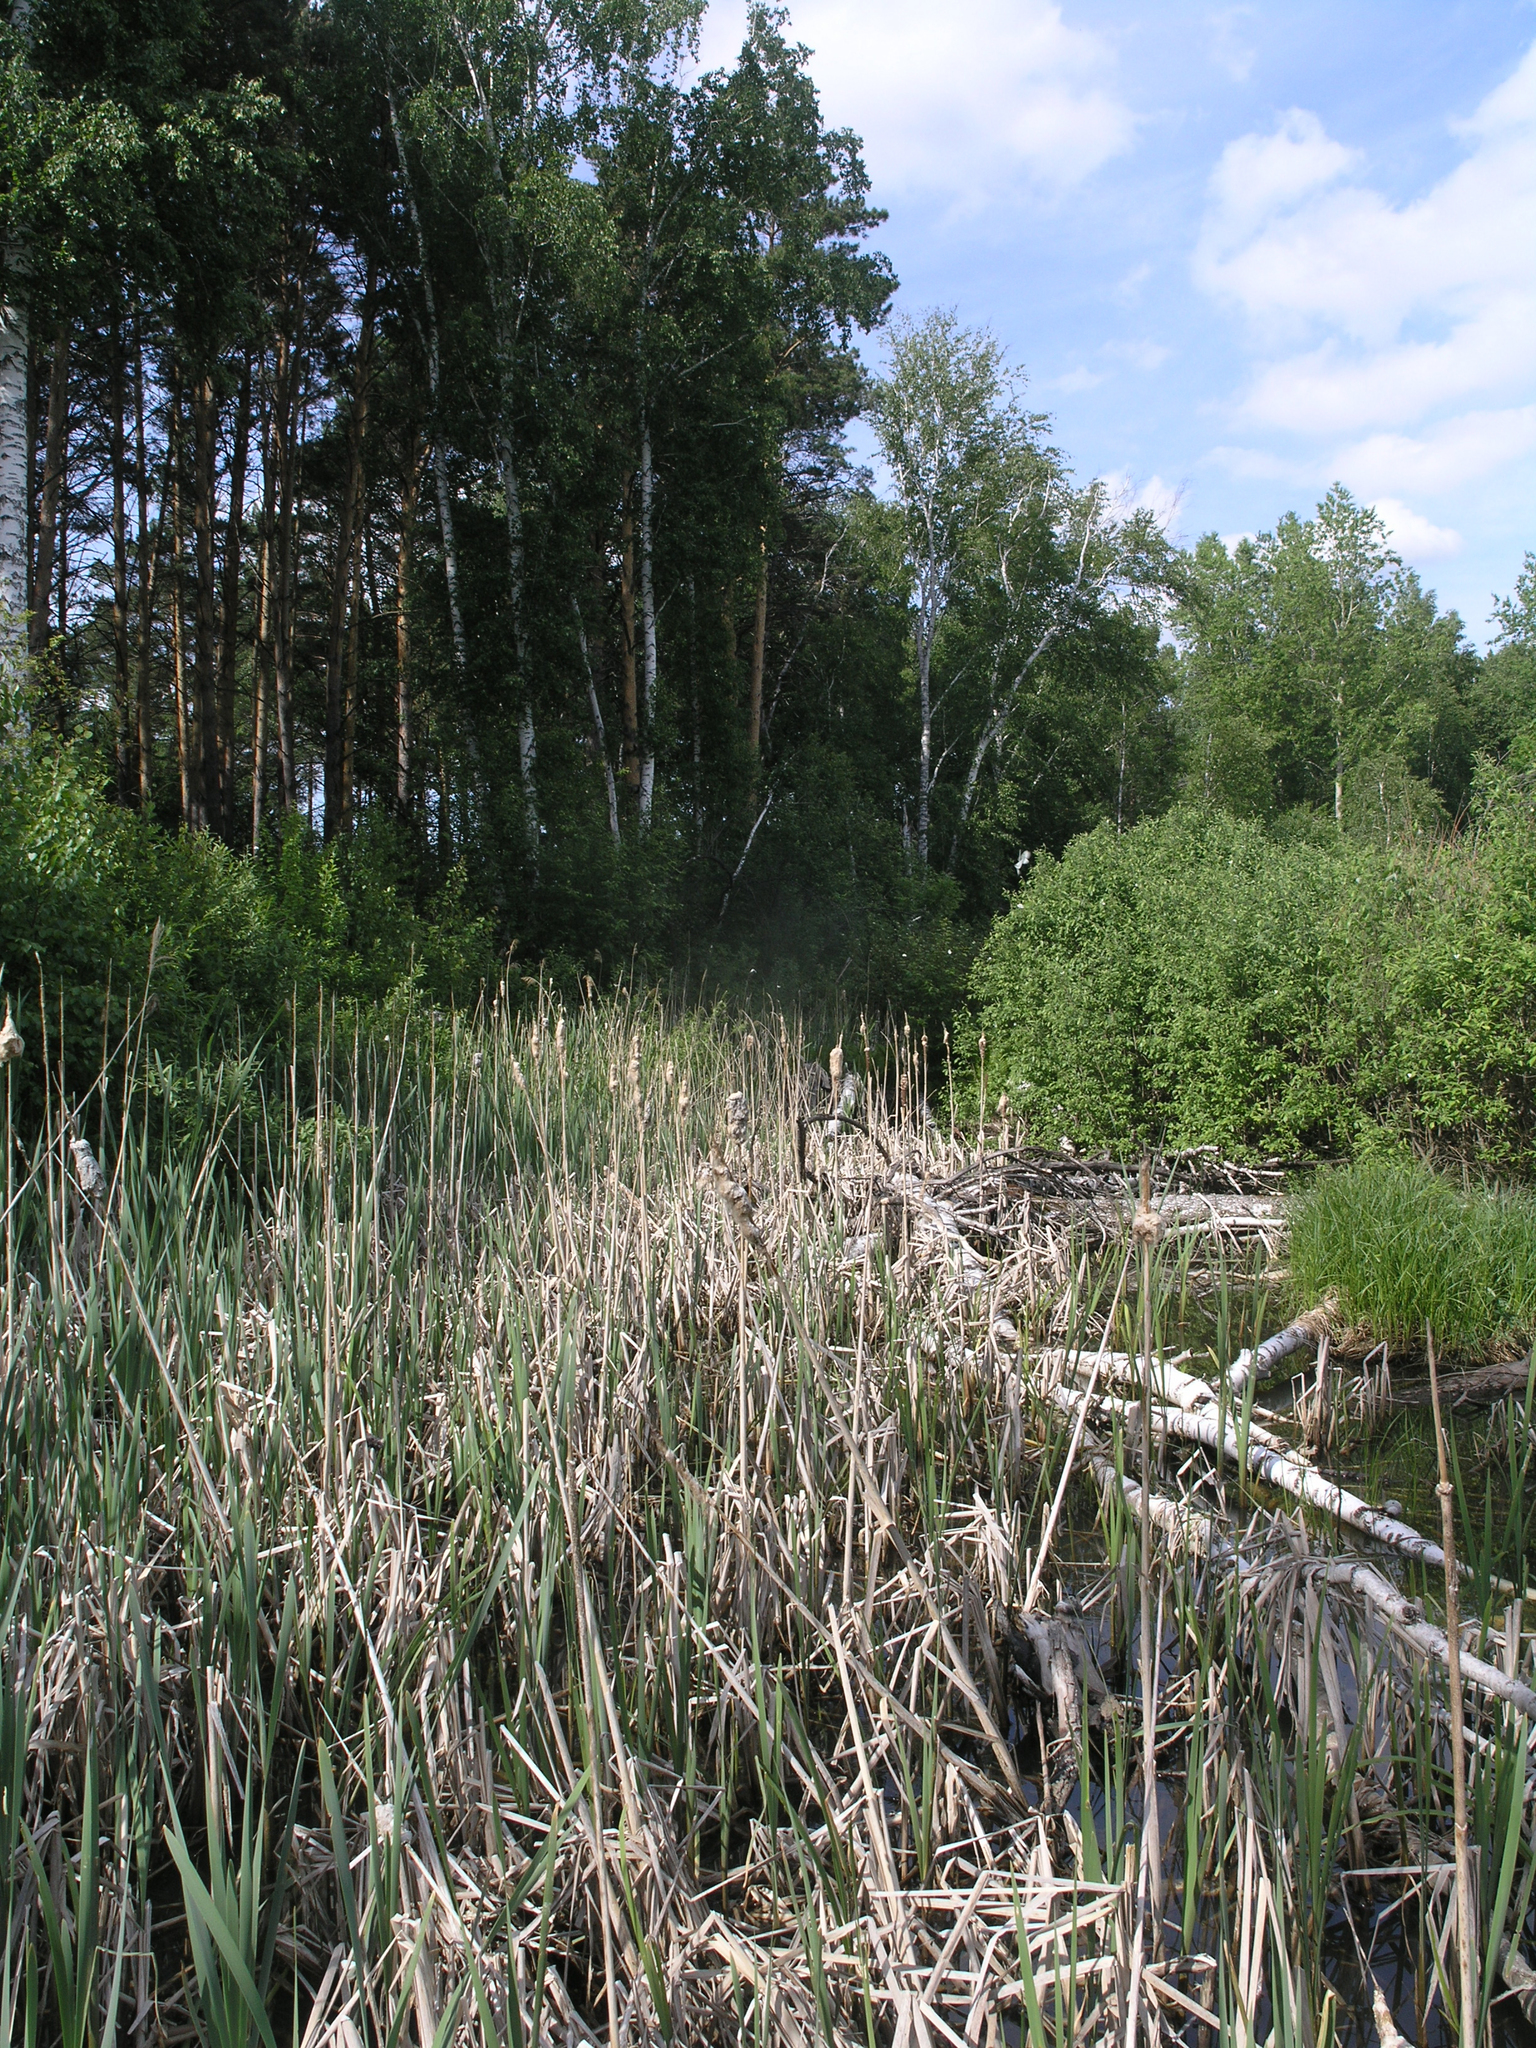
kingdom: Plantae
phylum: Tracheophyta
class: Liliopsida
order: Poales
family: Typhaceae
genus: Typha
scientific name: Typha latifolia
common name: Broadleaf cattail
